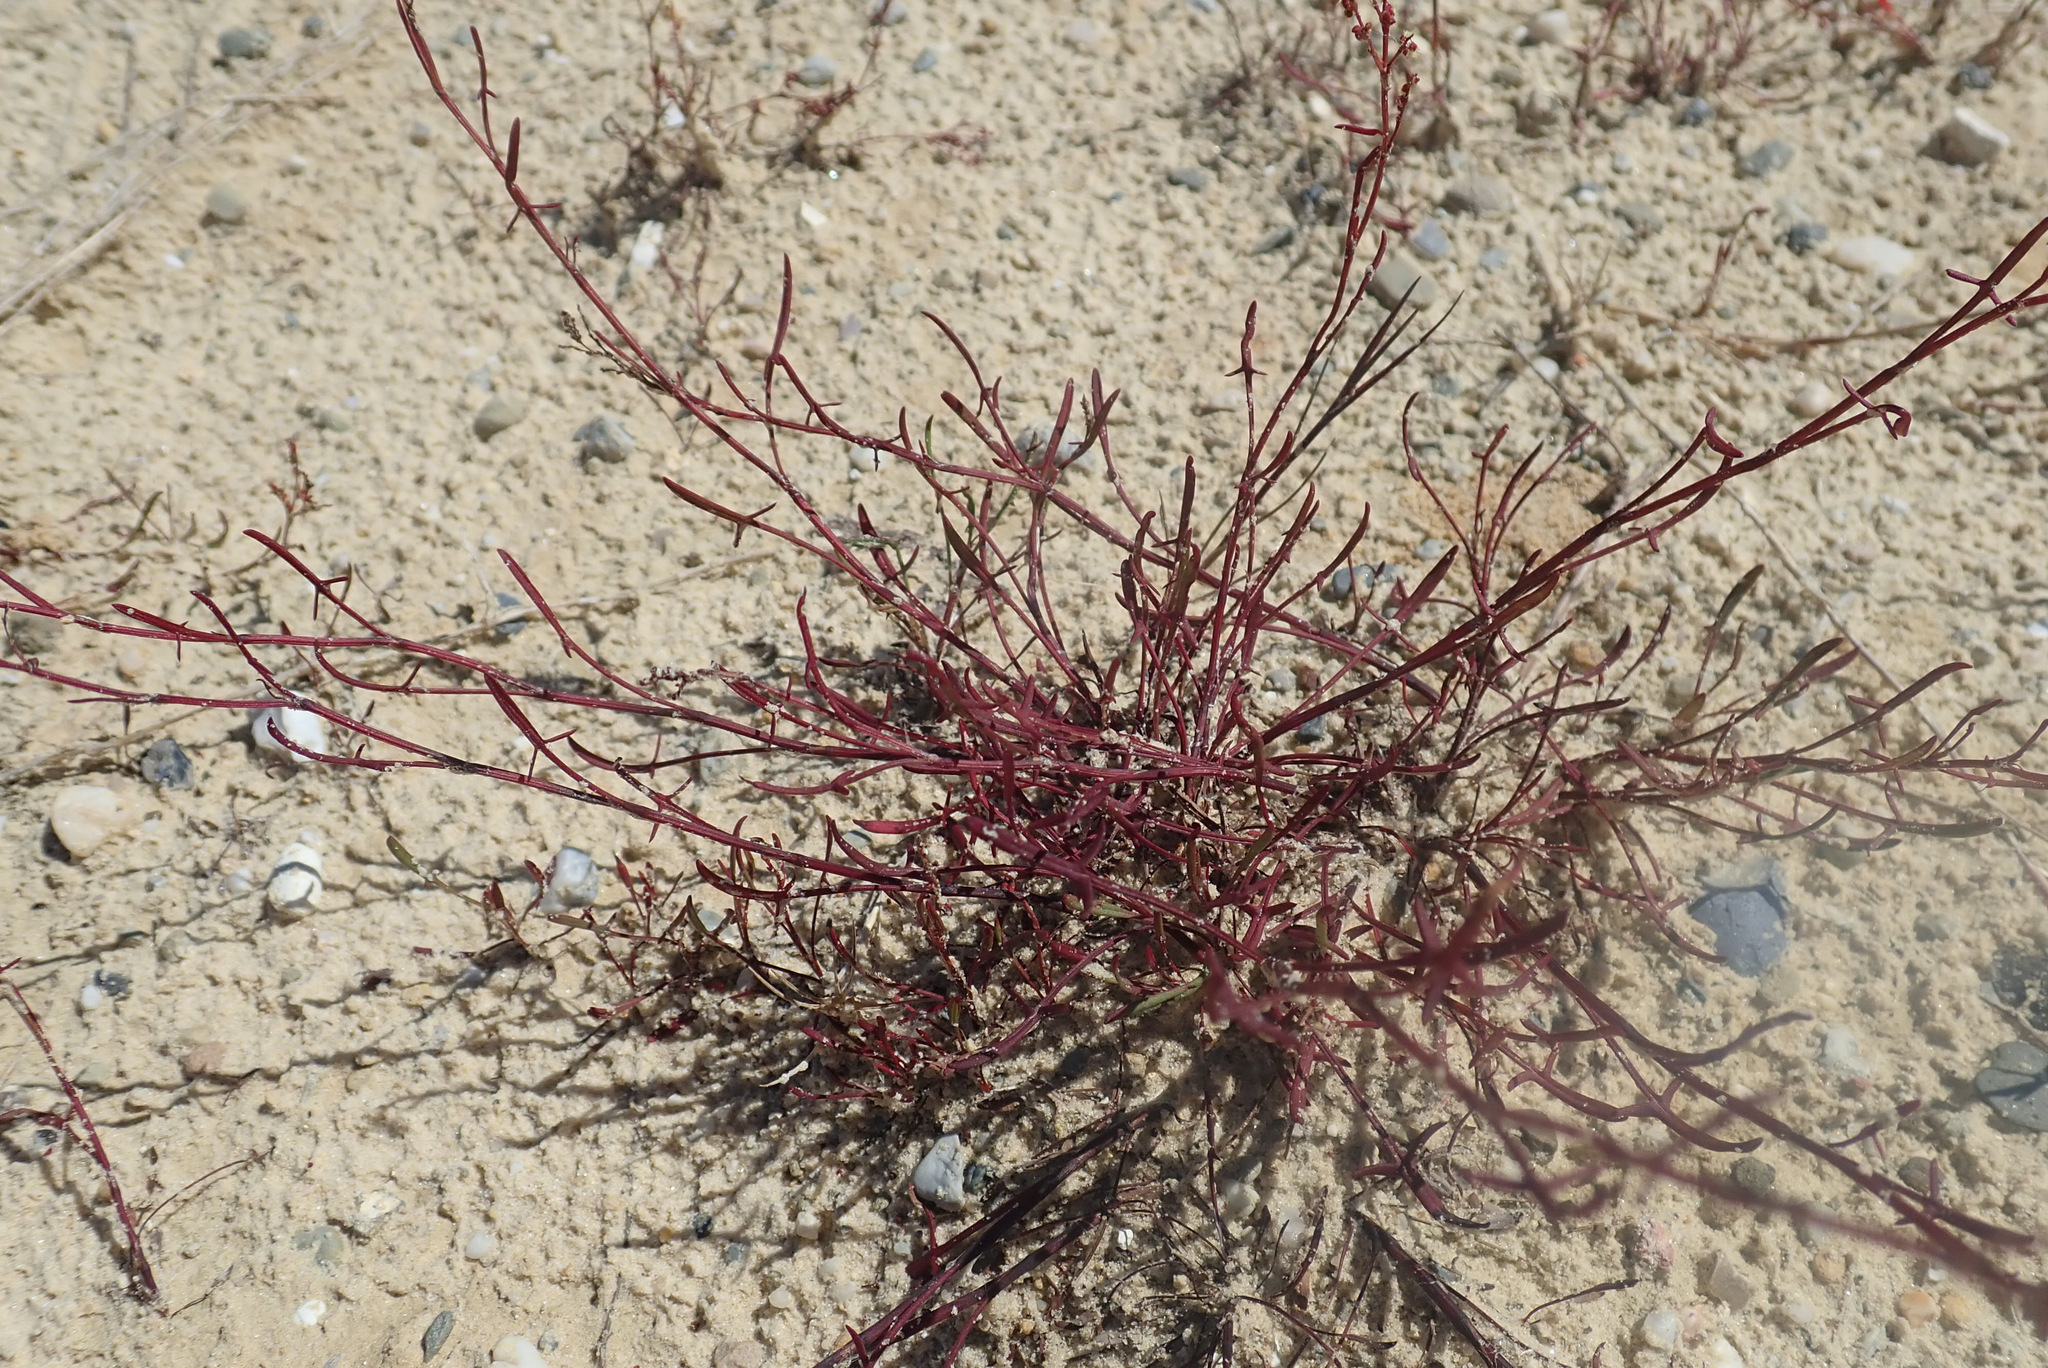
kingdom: Plantae
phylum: Tracheophyta
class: Magnoliopsida
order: Caryophyllales
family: Polygonaceae
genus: Rumex
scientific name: Rumex acetosella
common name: Common sheep sorrel
